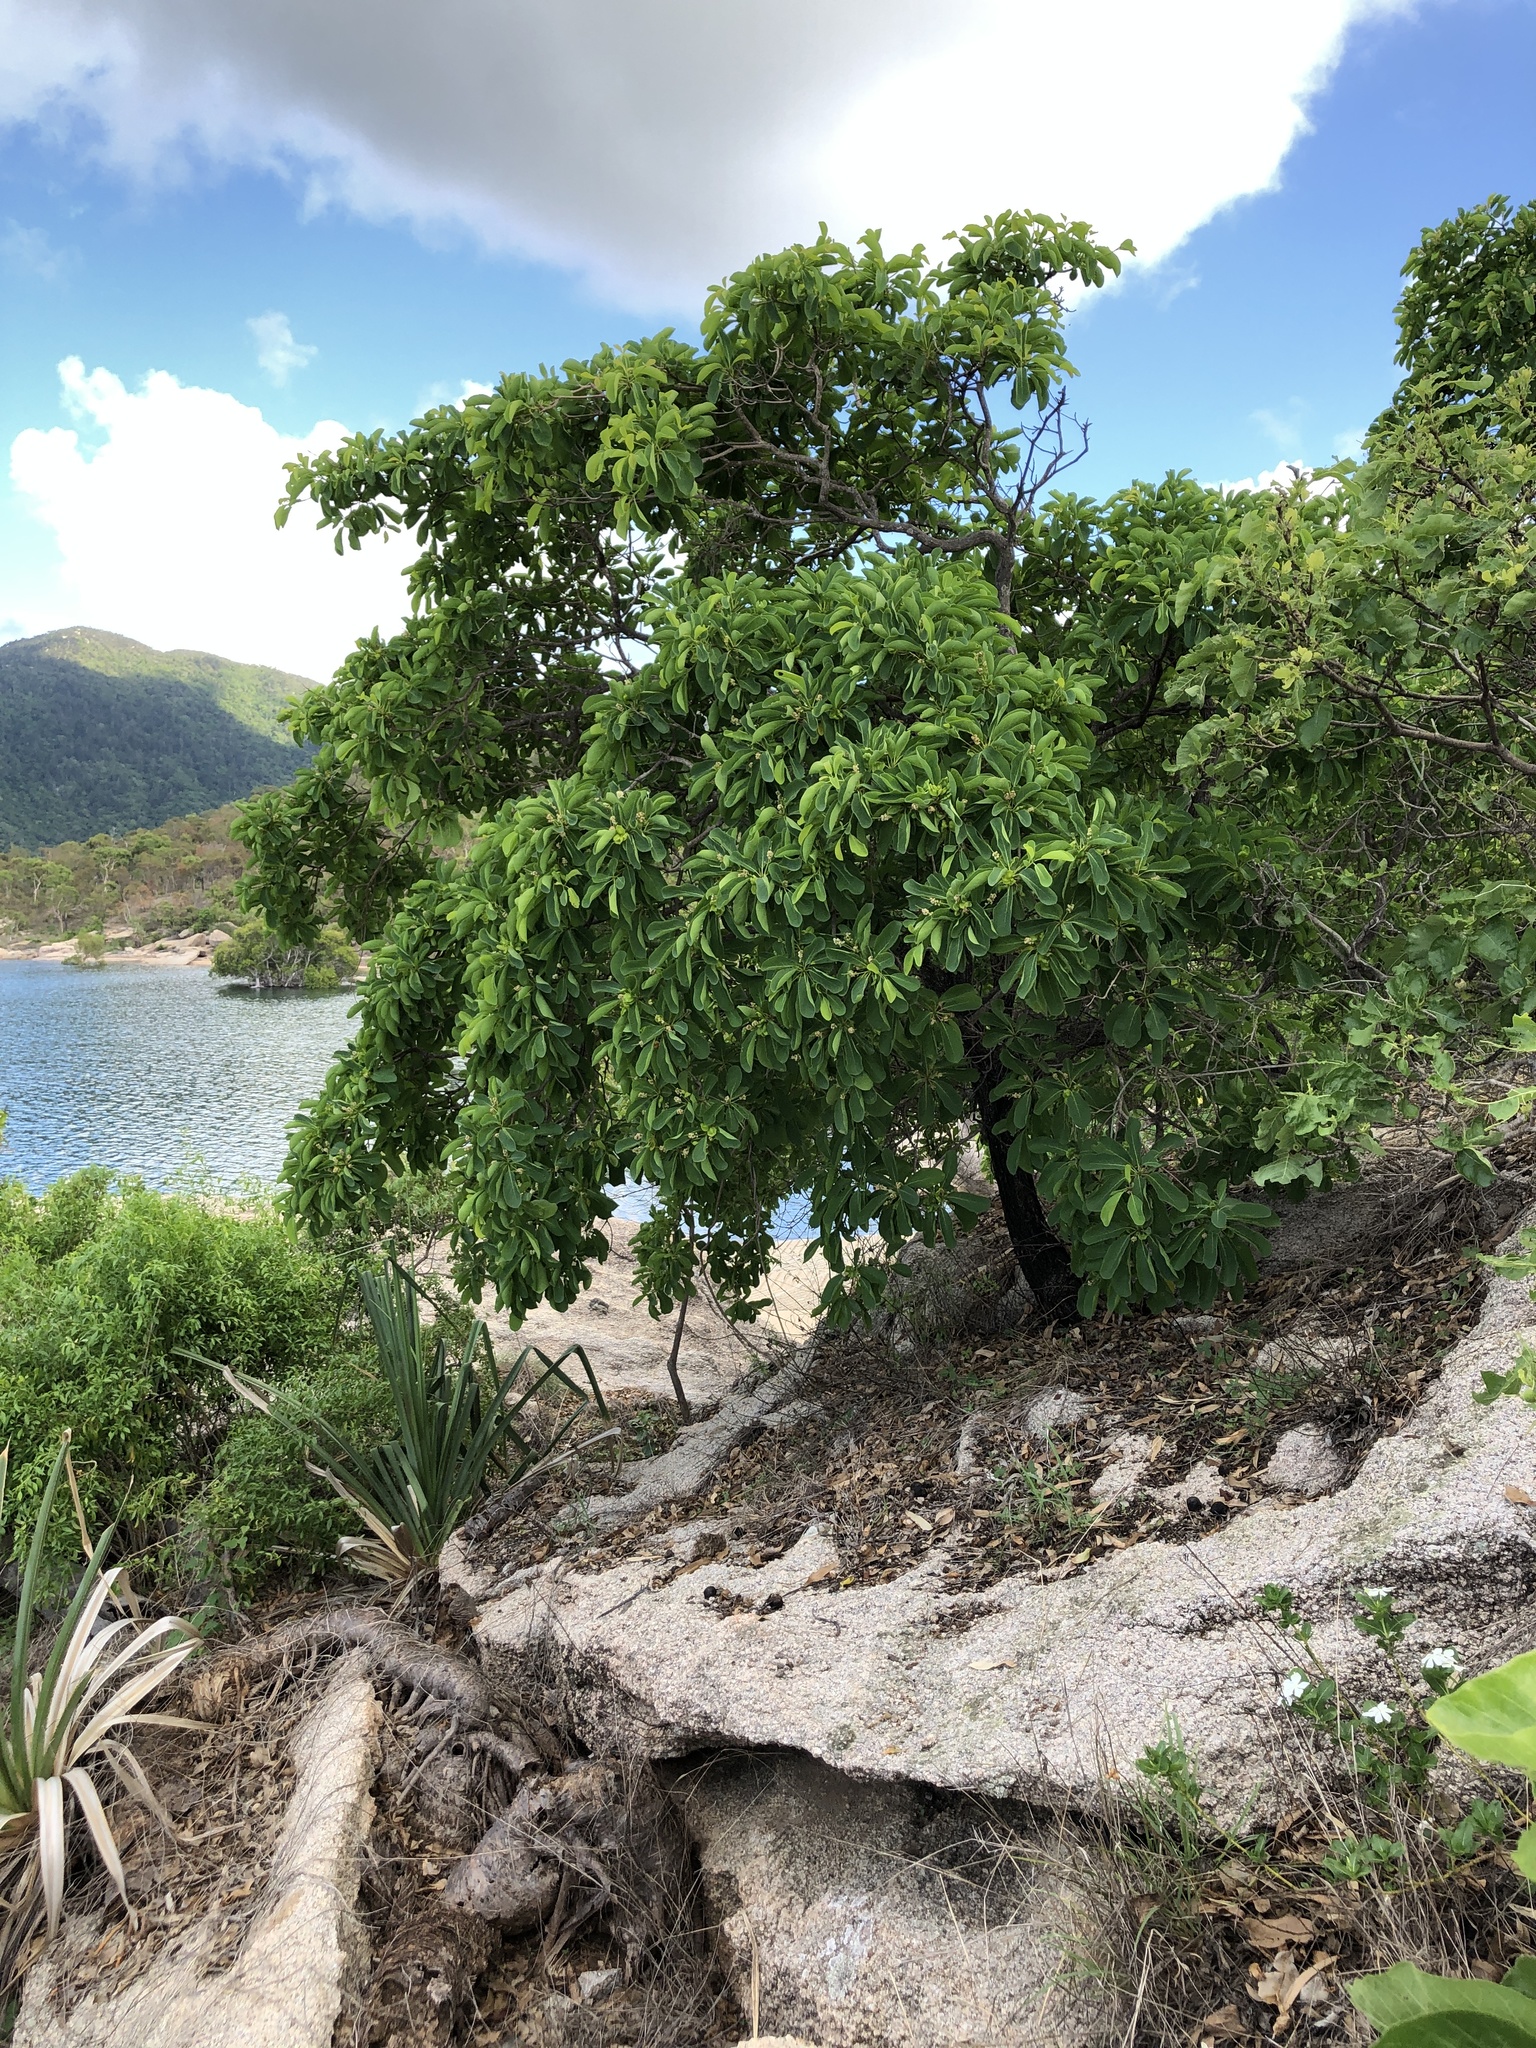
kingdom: Plantae
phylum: Tracheophyta
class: Magnoliopsida
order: Myrtales
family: Combretaceae
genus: Terminalia
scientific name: Terminalia porphyrocarpa
